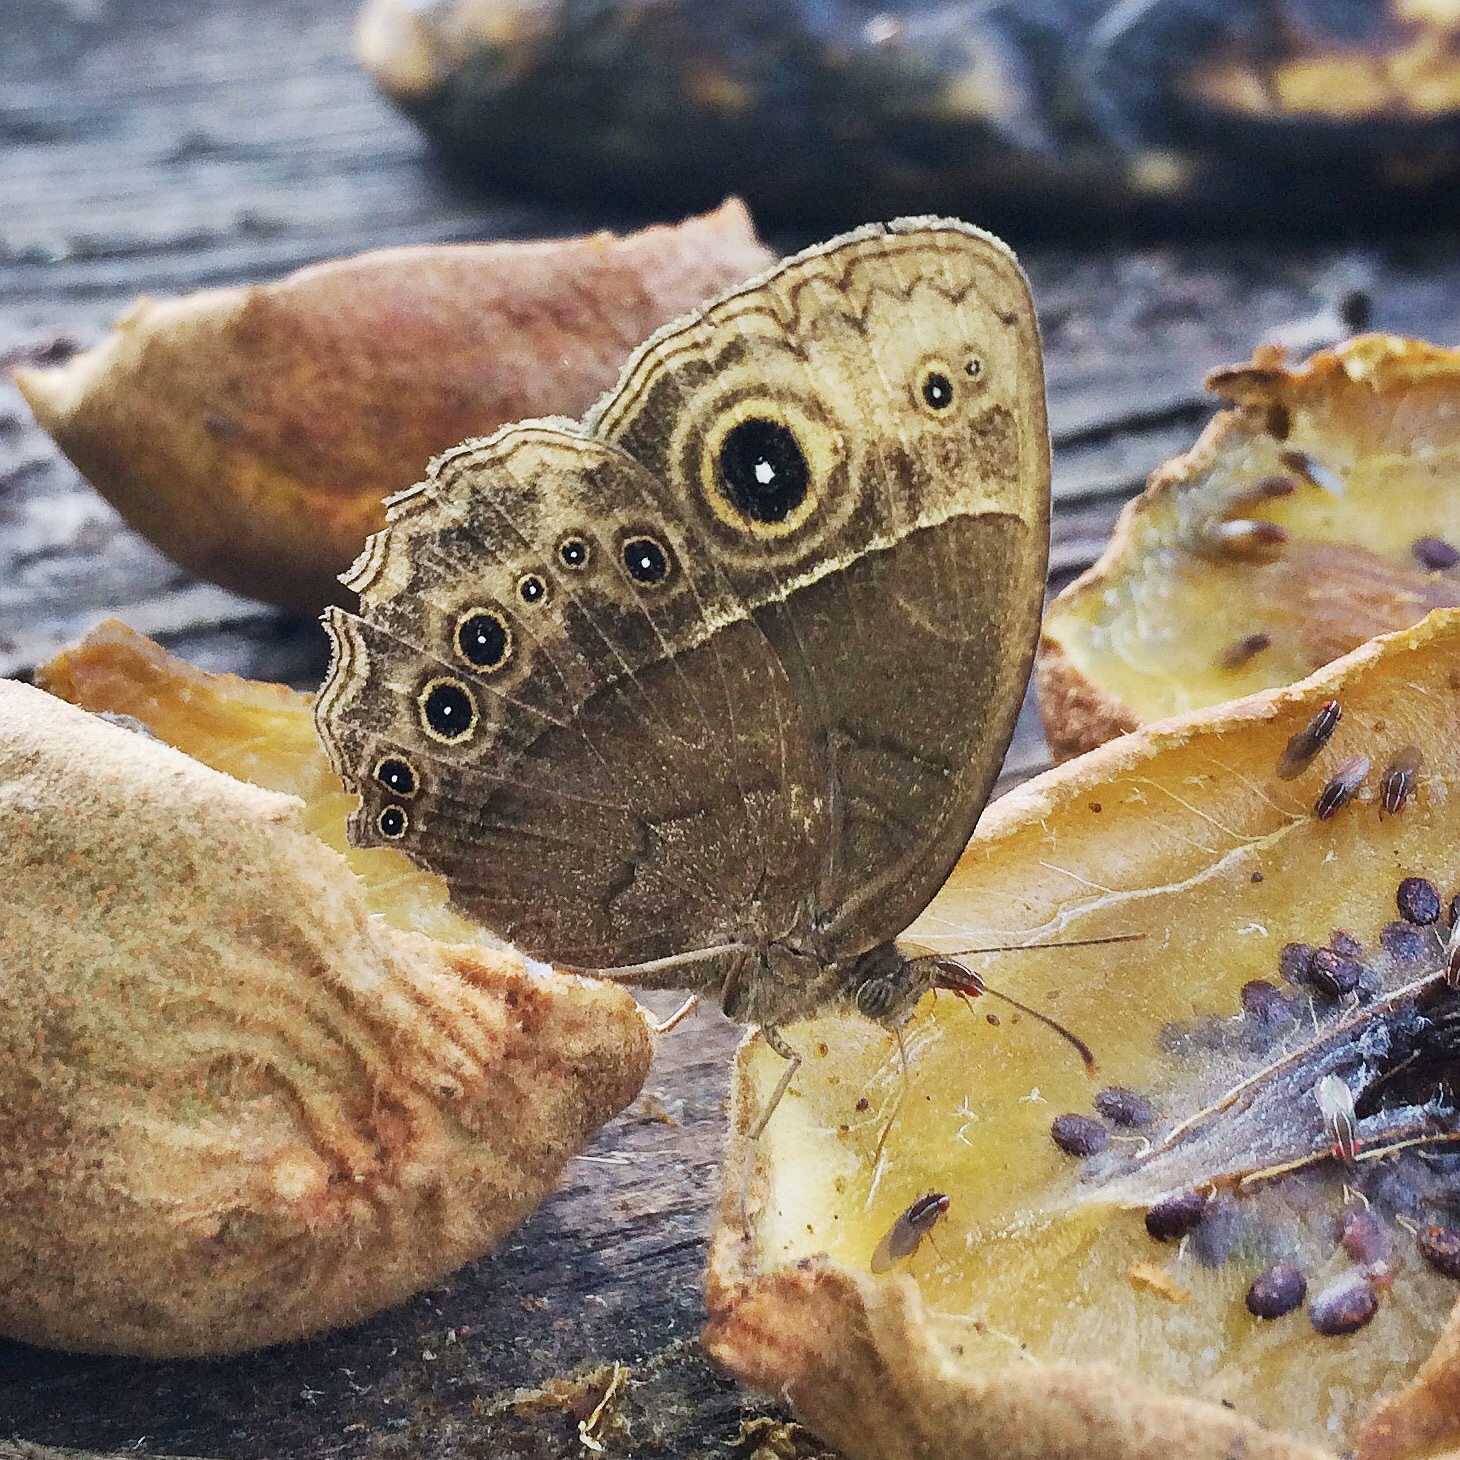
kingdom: Animalia
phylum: Arthropoda
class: Insecta
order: Lepidoptera
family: Nymphalidae
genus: Mycalesis
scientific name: Mycalesis rhacotis
